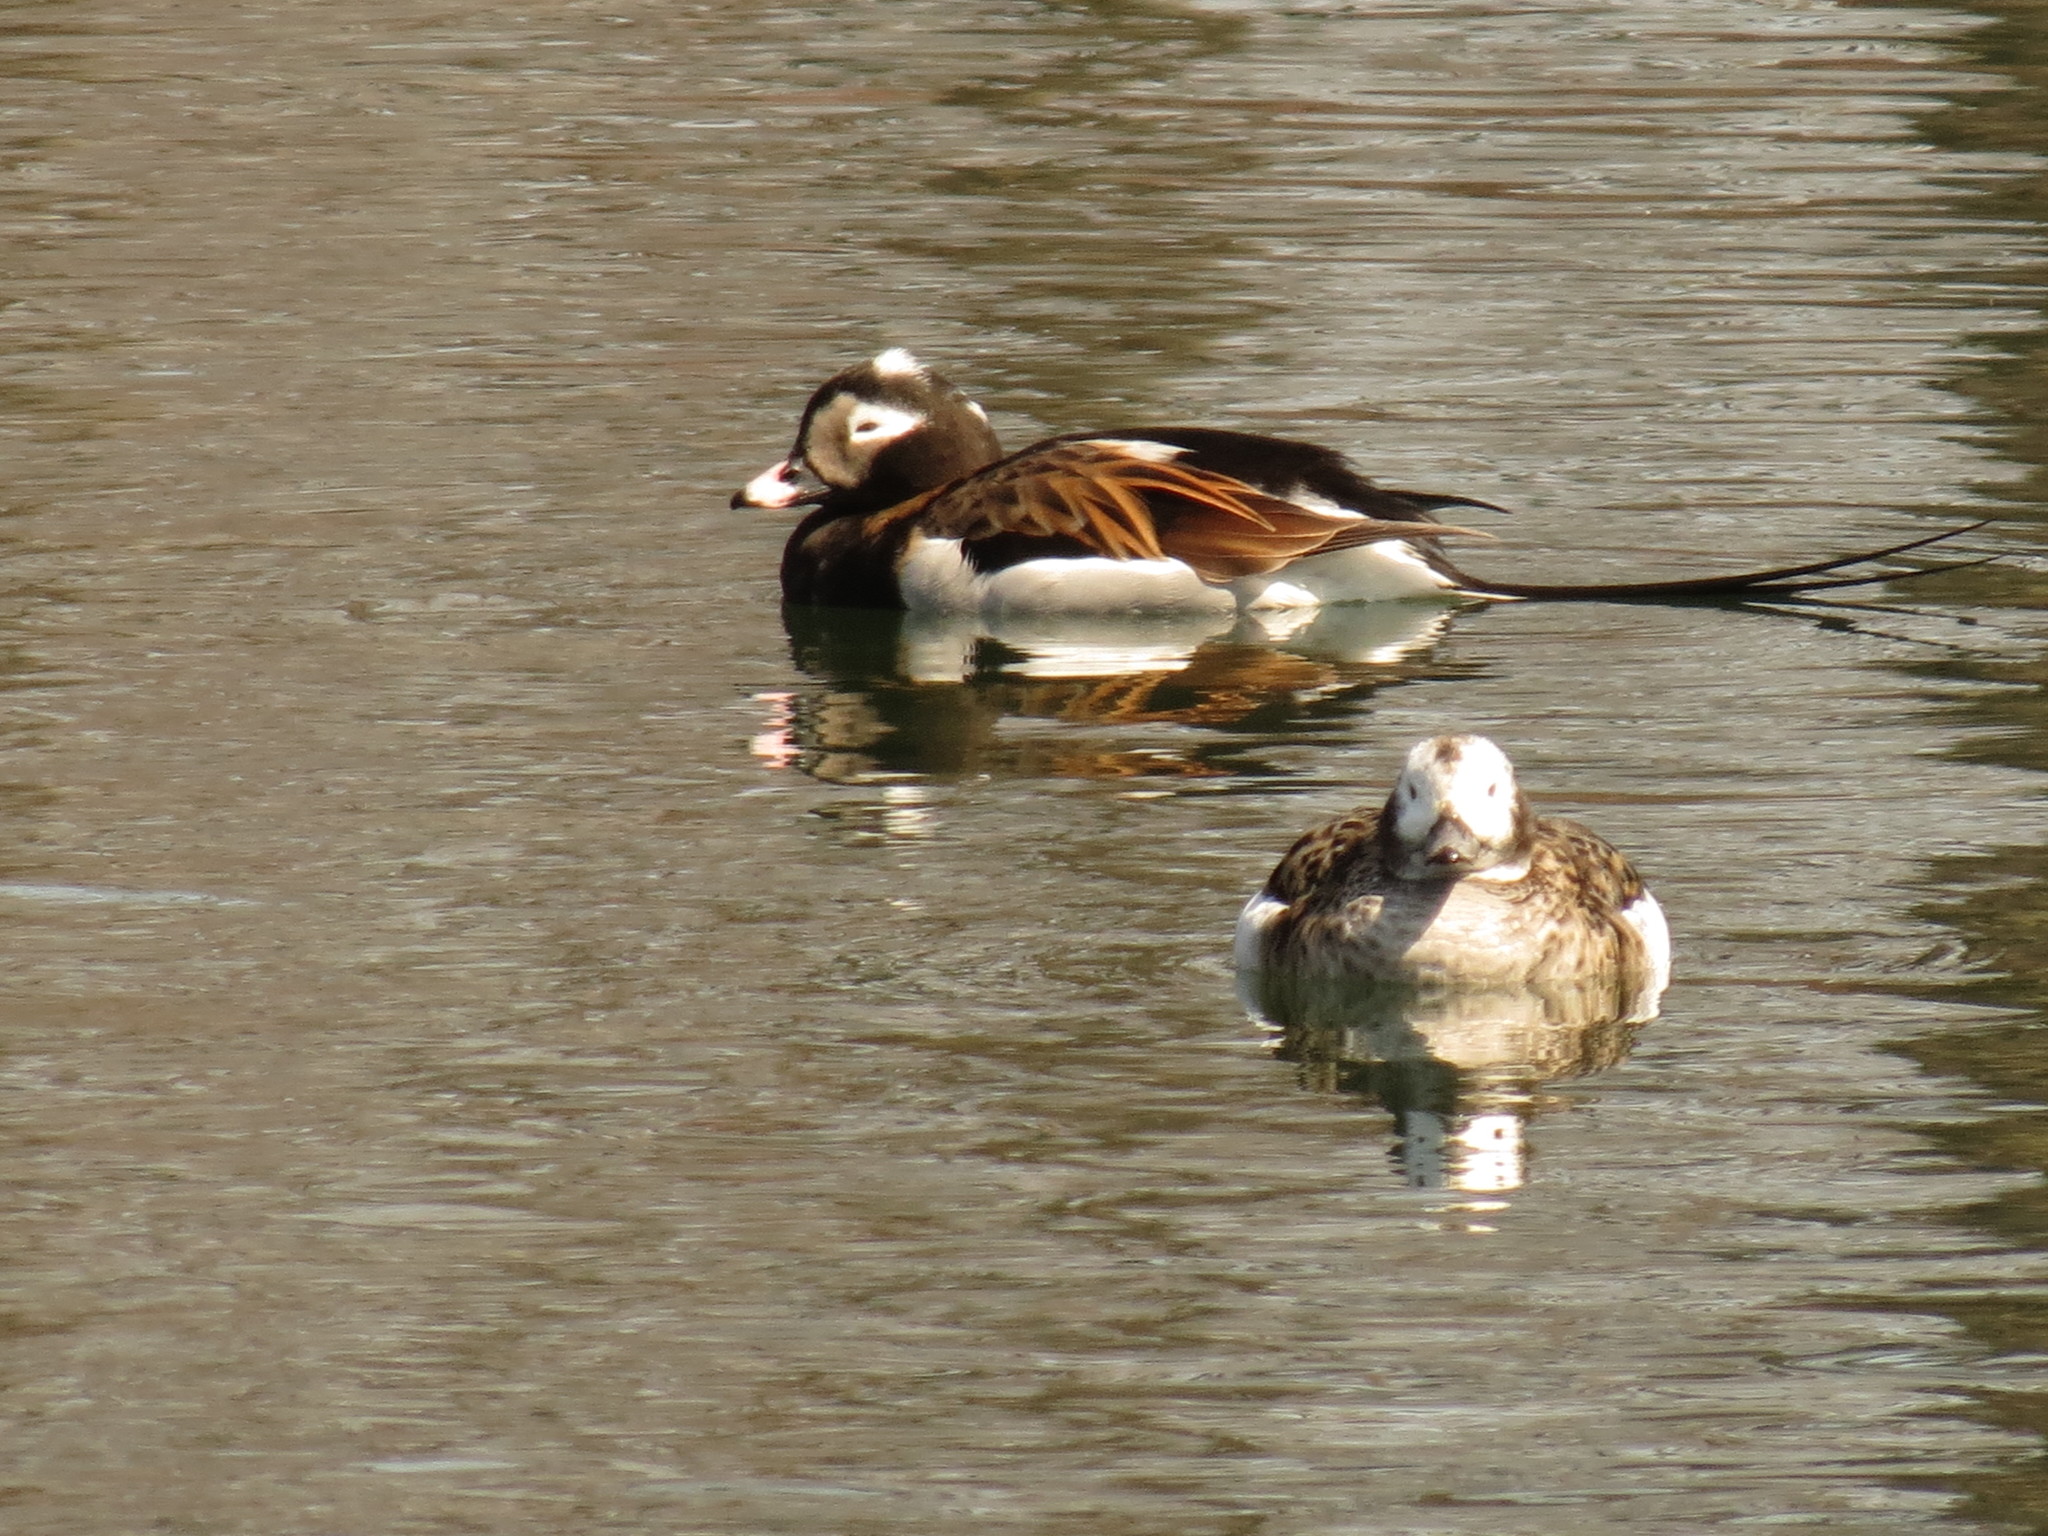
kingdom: Animalia
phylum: Chordata
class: Aves
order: Anseriformes
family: Anatidae
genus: Clangula
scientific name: Clangula hyemalis
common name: Long-tailed duck
